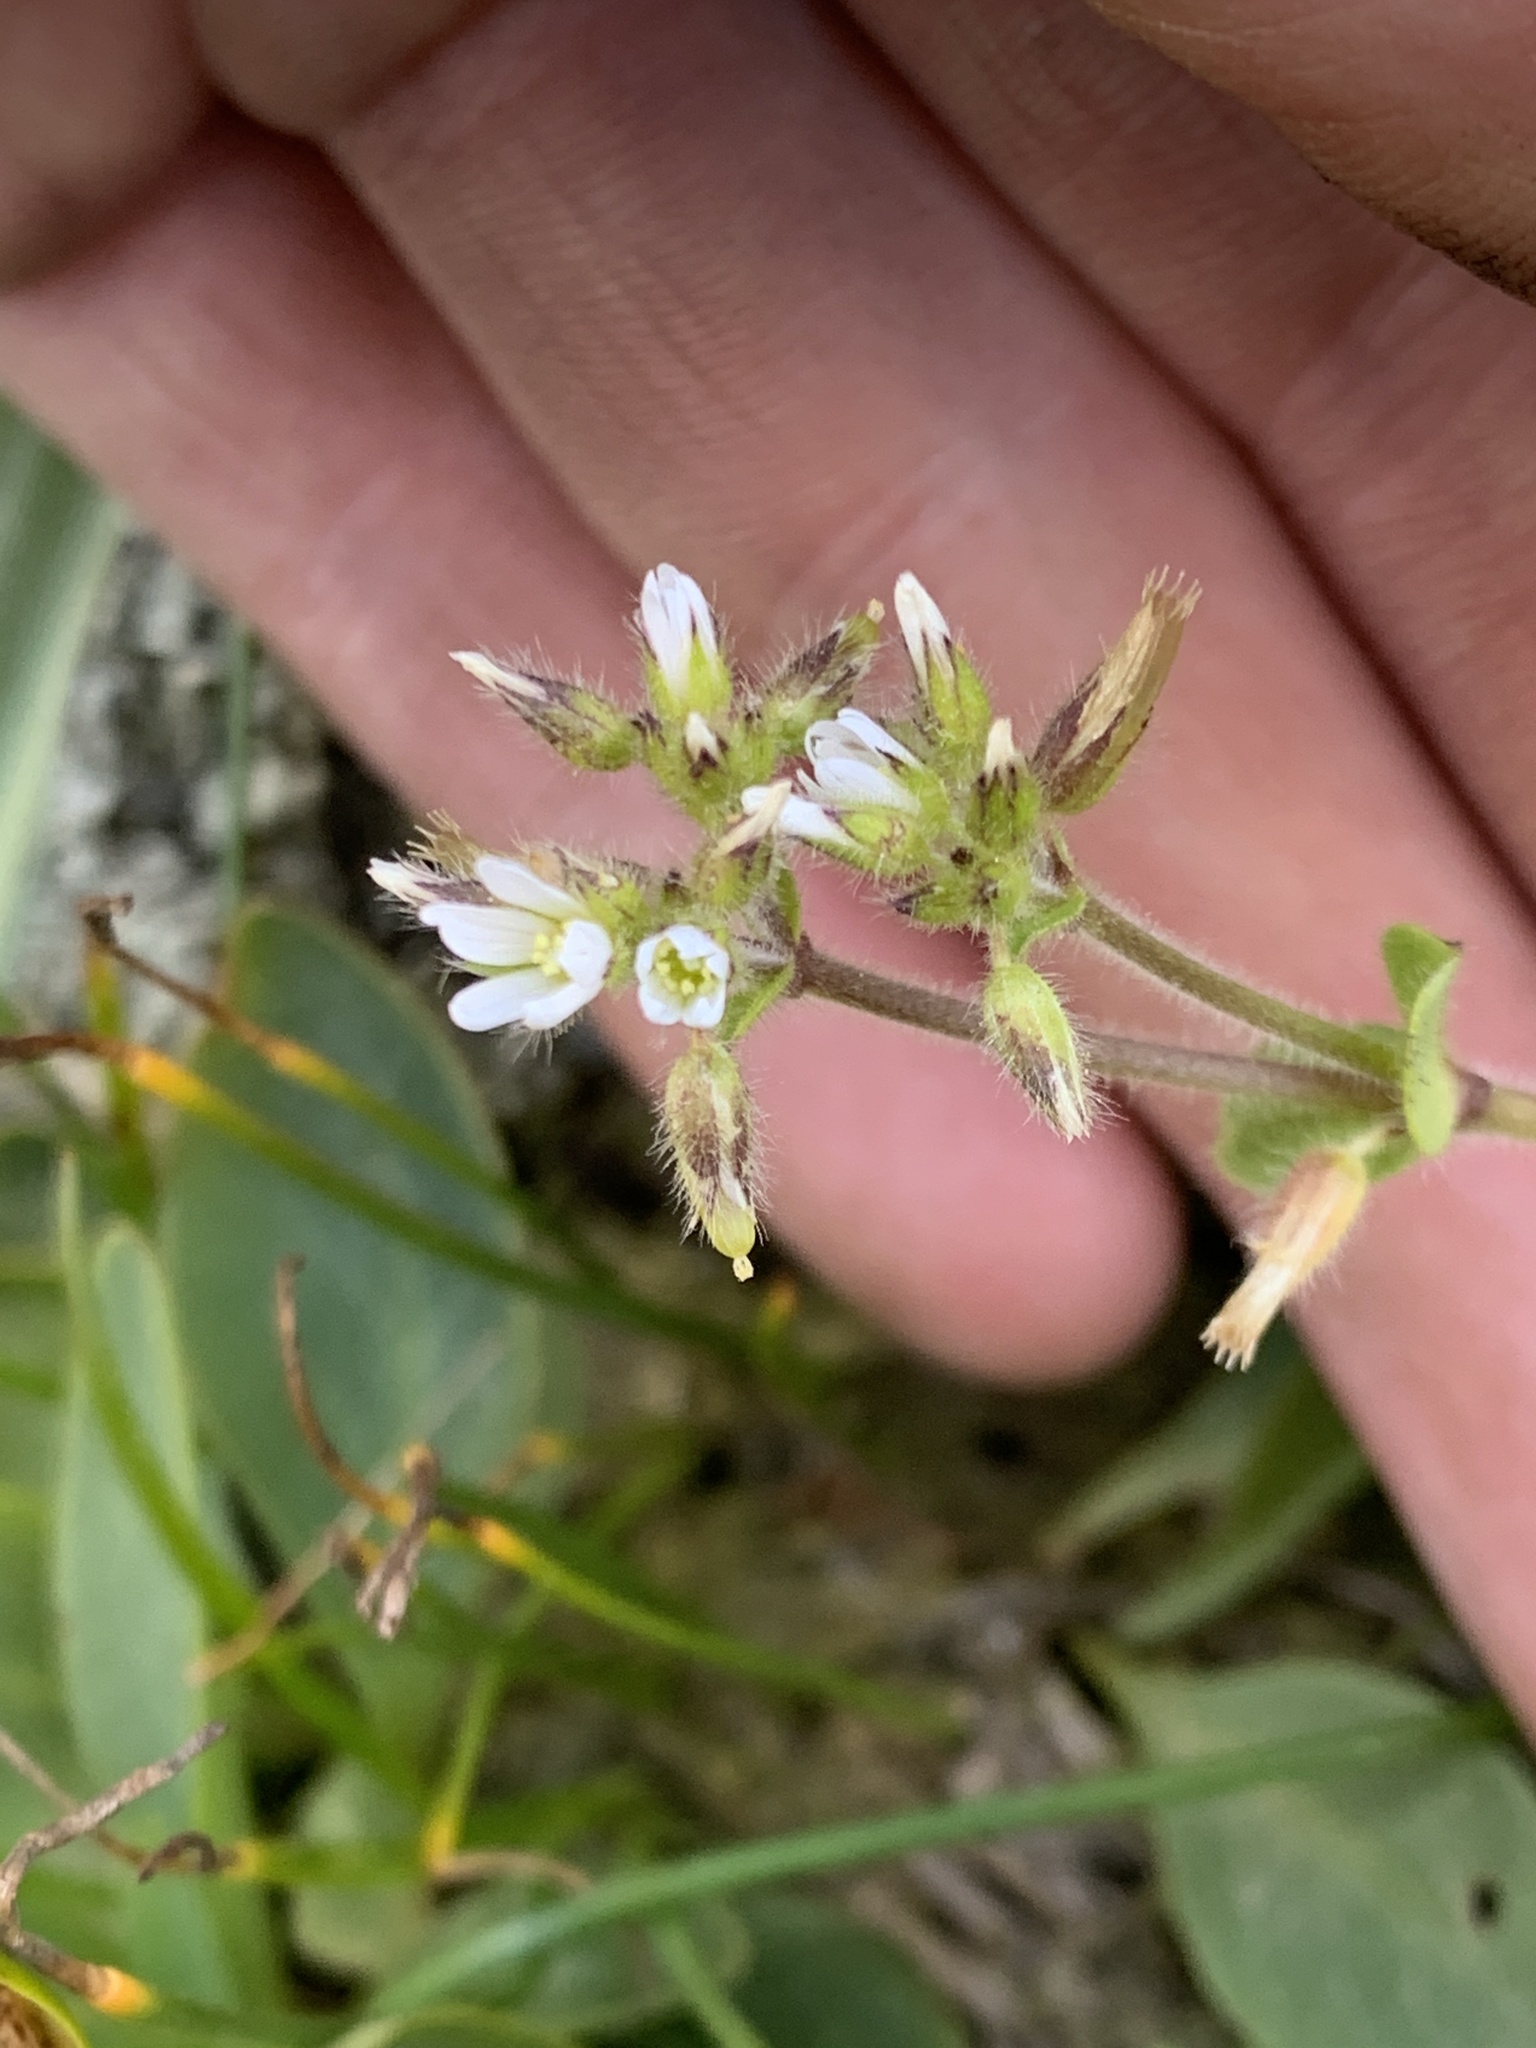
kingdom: Plantae
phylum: Tracheophyta
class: Magnoliopsida
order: Caryophyllales
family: Caryophyllaceae
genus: Cerastium
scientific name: Cerastium glomeratum
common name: Sticky chickweed
